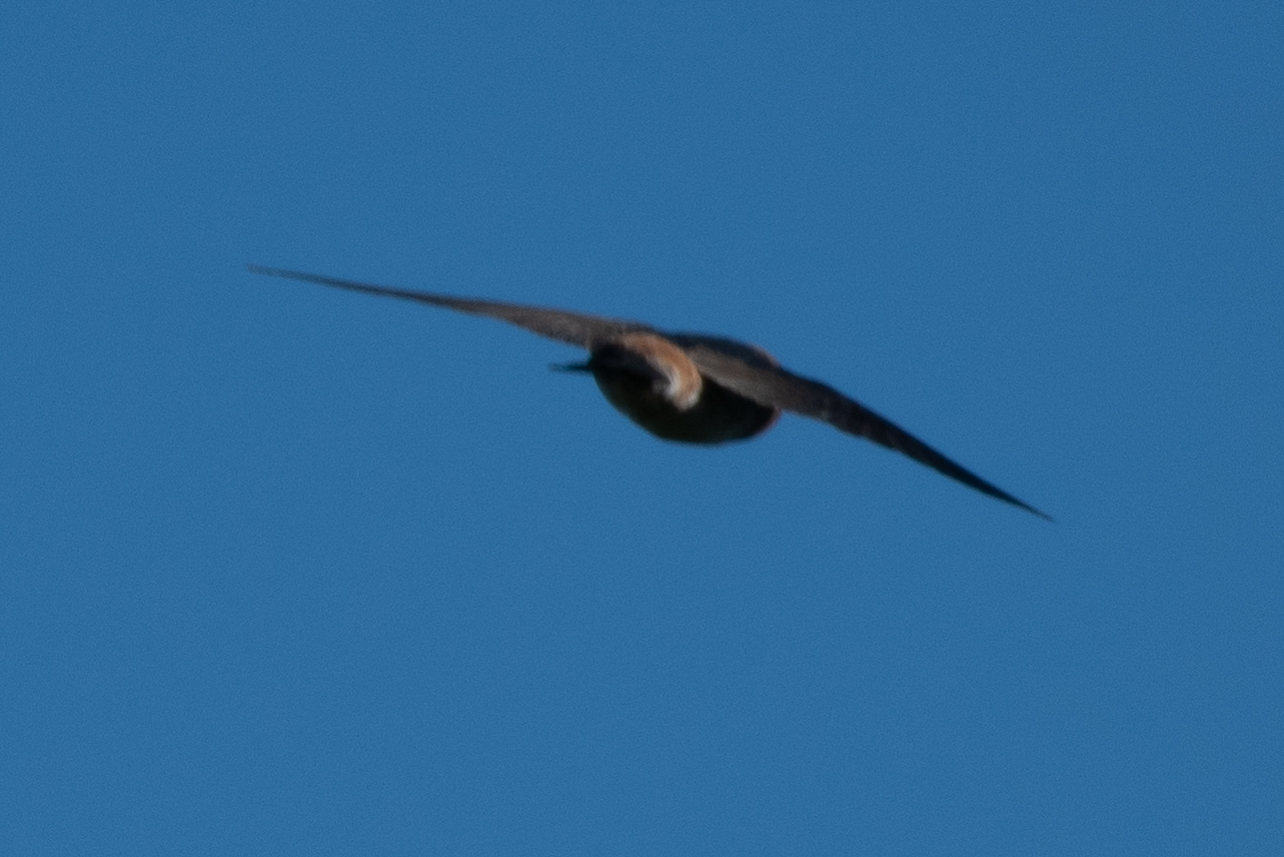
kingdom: Animalia
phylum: Chordata
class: Aves
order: Passeriformes
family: Hirundinidae
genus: Petrochelidon
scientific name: Petrochelidon pyrrhonota
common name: American cliff swallow
